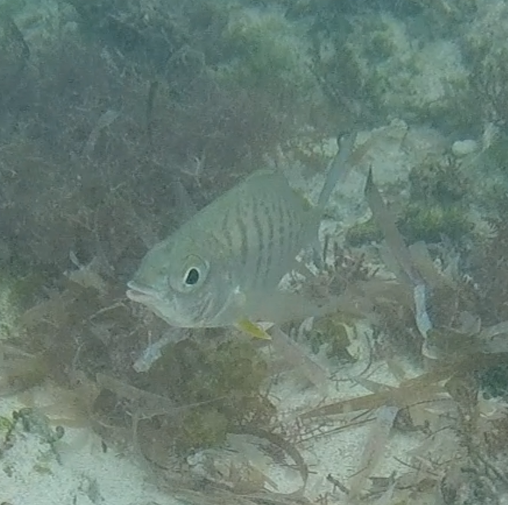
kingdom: Animalia
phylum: Chordata
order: Perciformes
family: Gerreidae
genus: Gerres
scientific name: Gerres cinereus
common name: Hedow
